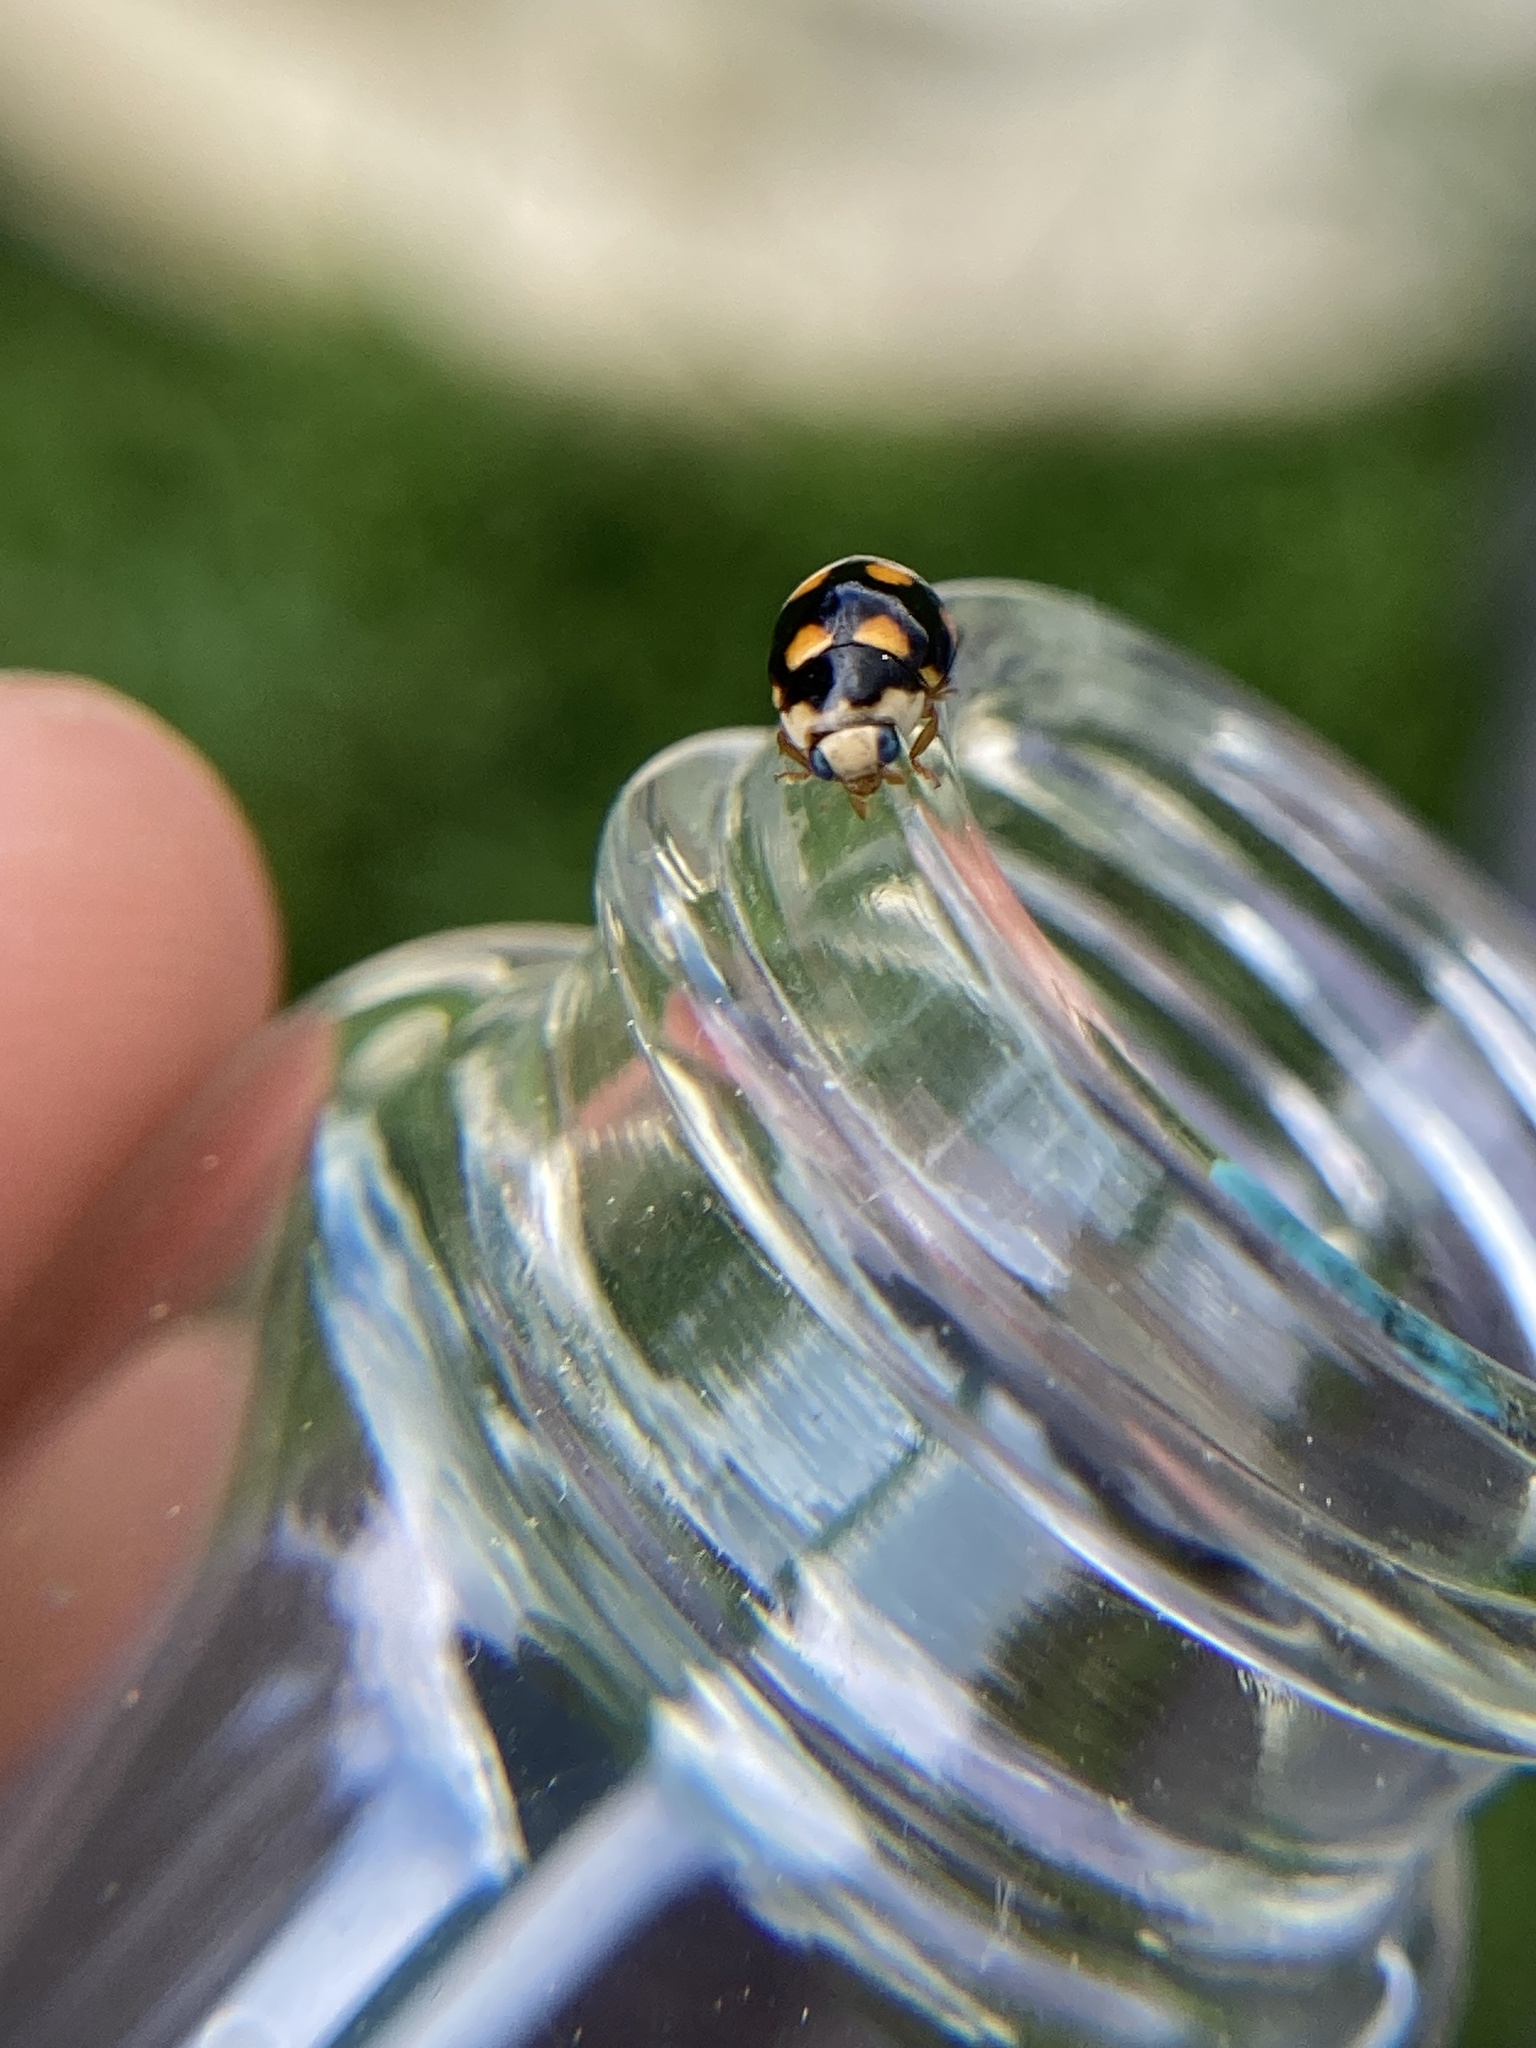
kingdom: Animalia
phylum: Arthropoda
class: Insecta
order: Coleoptera
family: Coccinellidae
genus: Brachiacantha
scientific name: Brachiacantha ursina
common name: Ursine spurleg lady beetle
